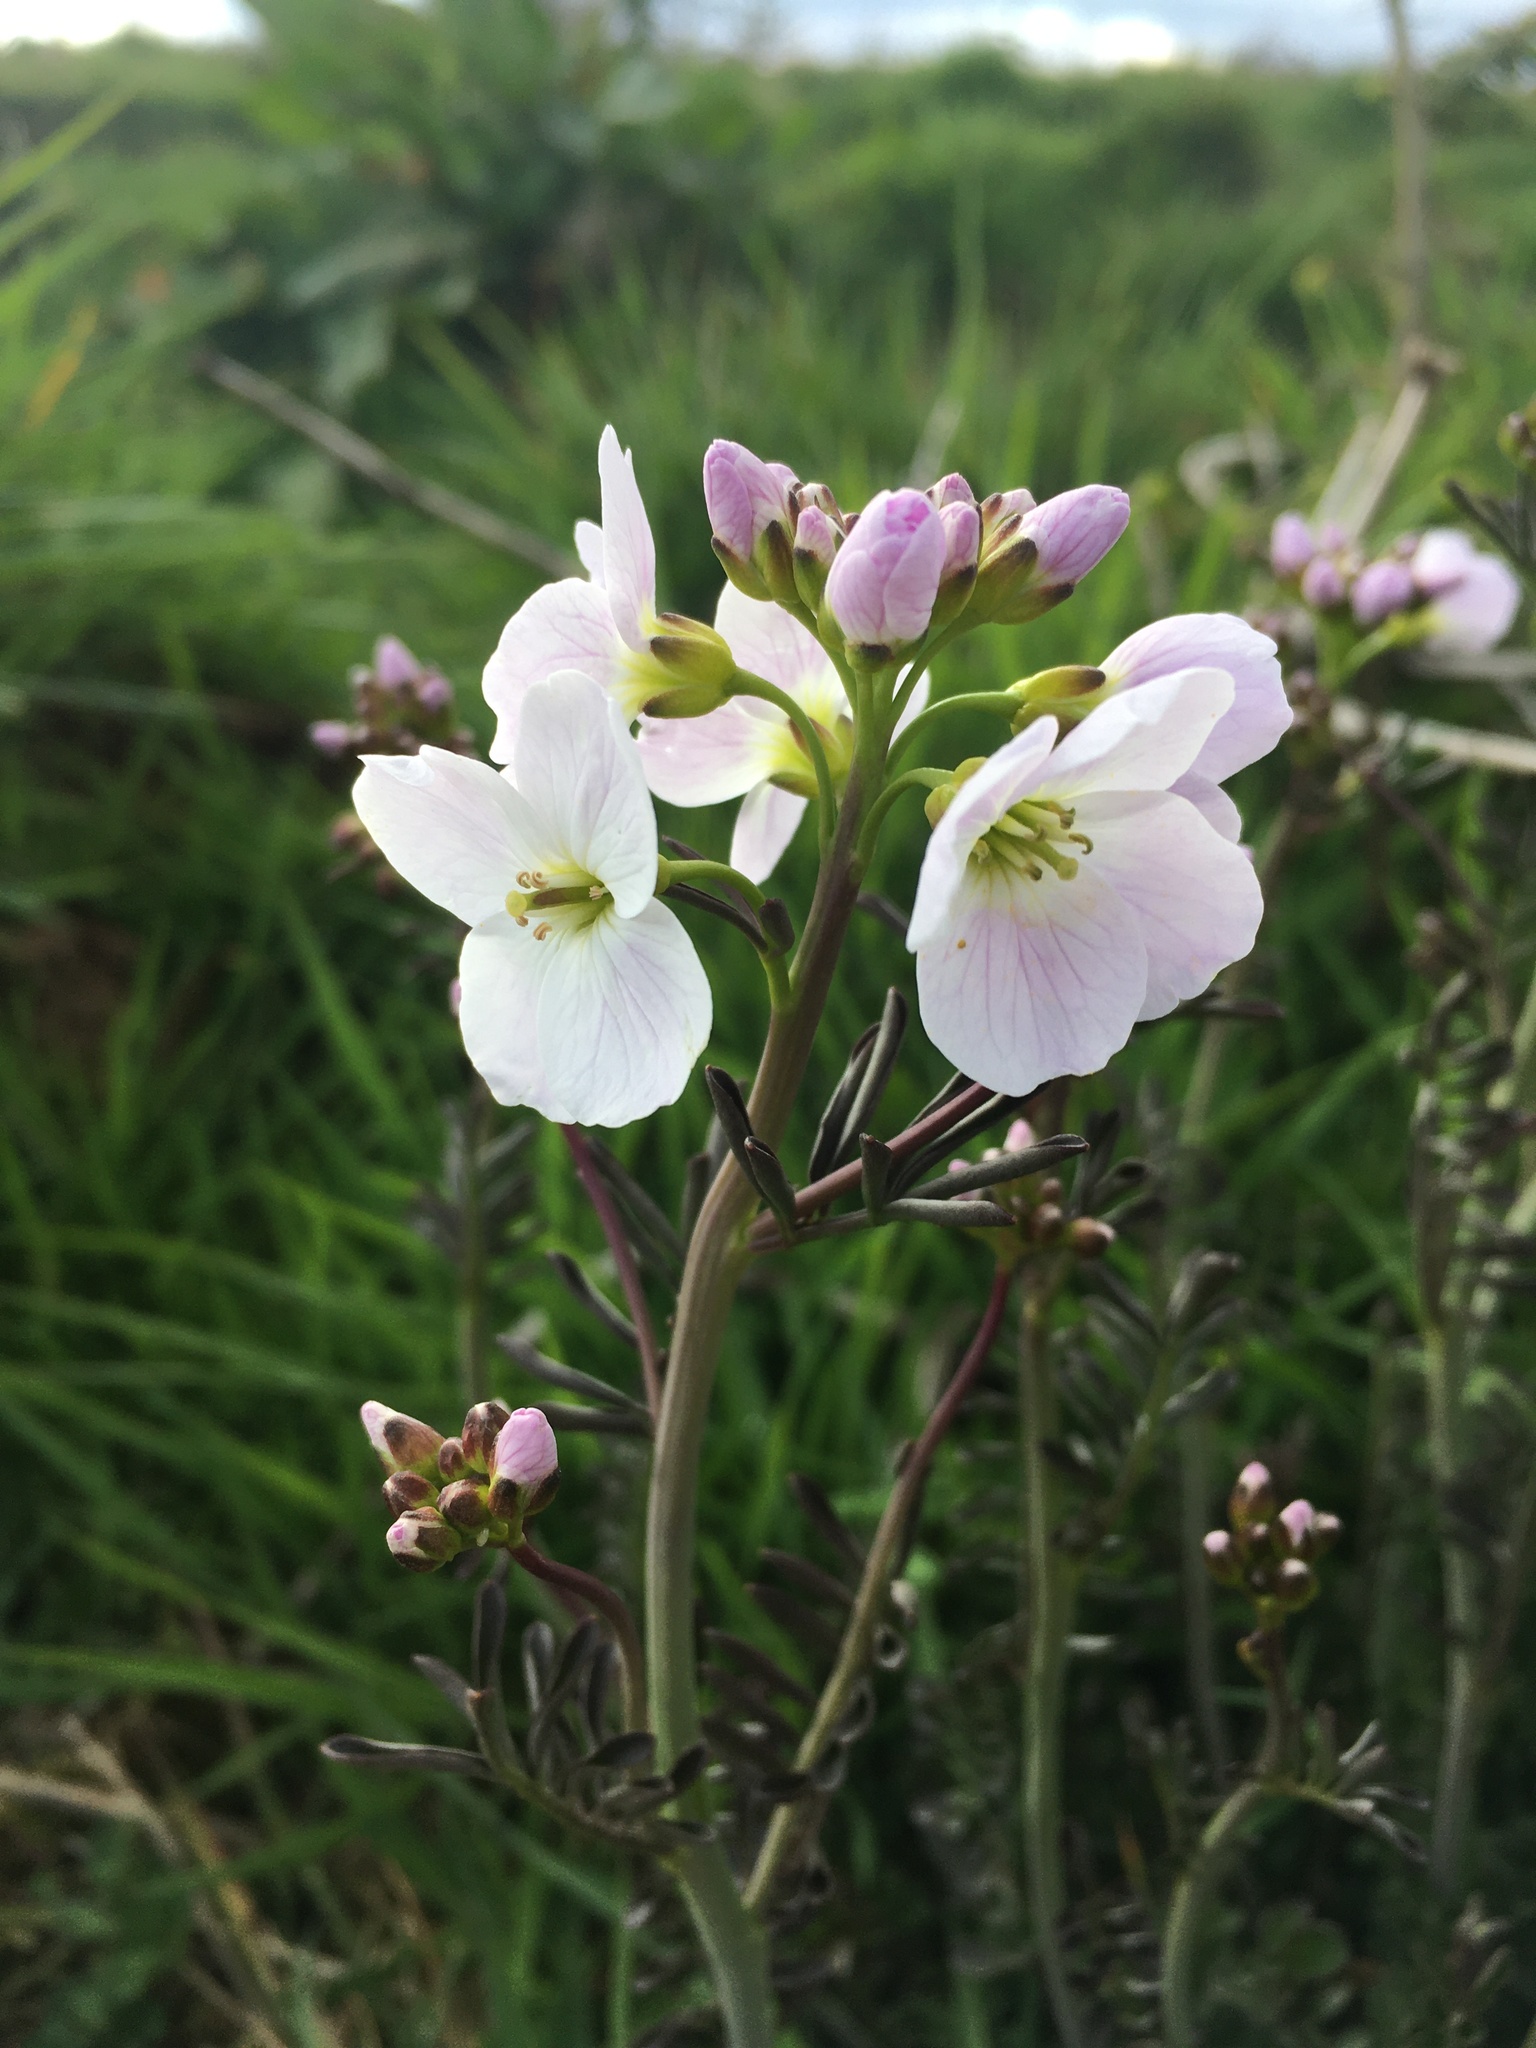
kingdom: Plantae
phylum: Tracheophyta
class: Magnoliopsida
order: Brassicales
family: Brassicaceae
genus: Cardamine
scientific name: Cardamine pratensis
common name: Cuckoo flower
